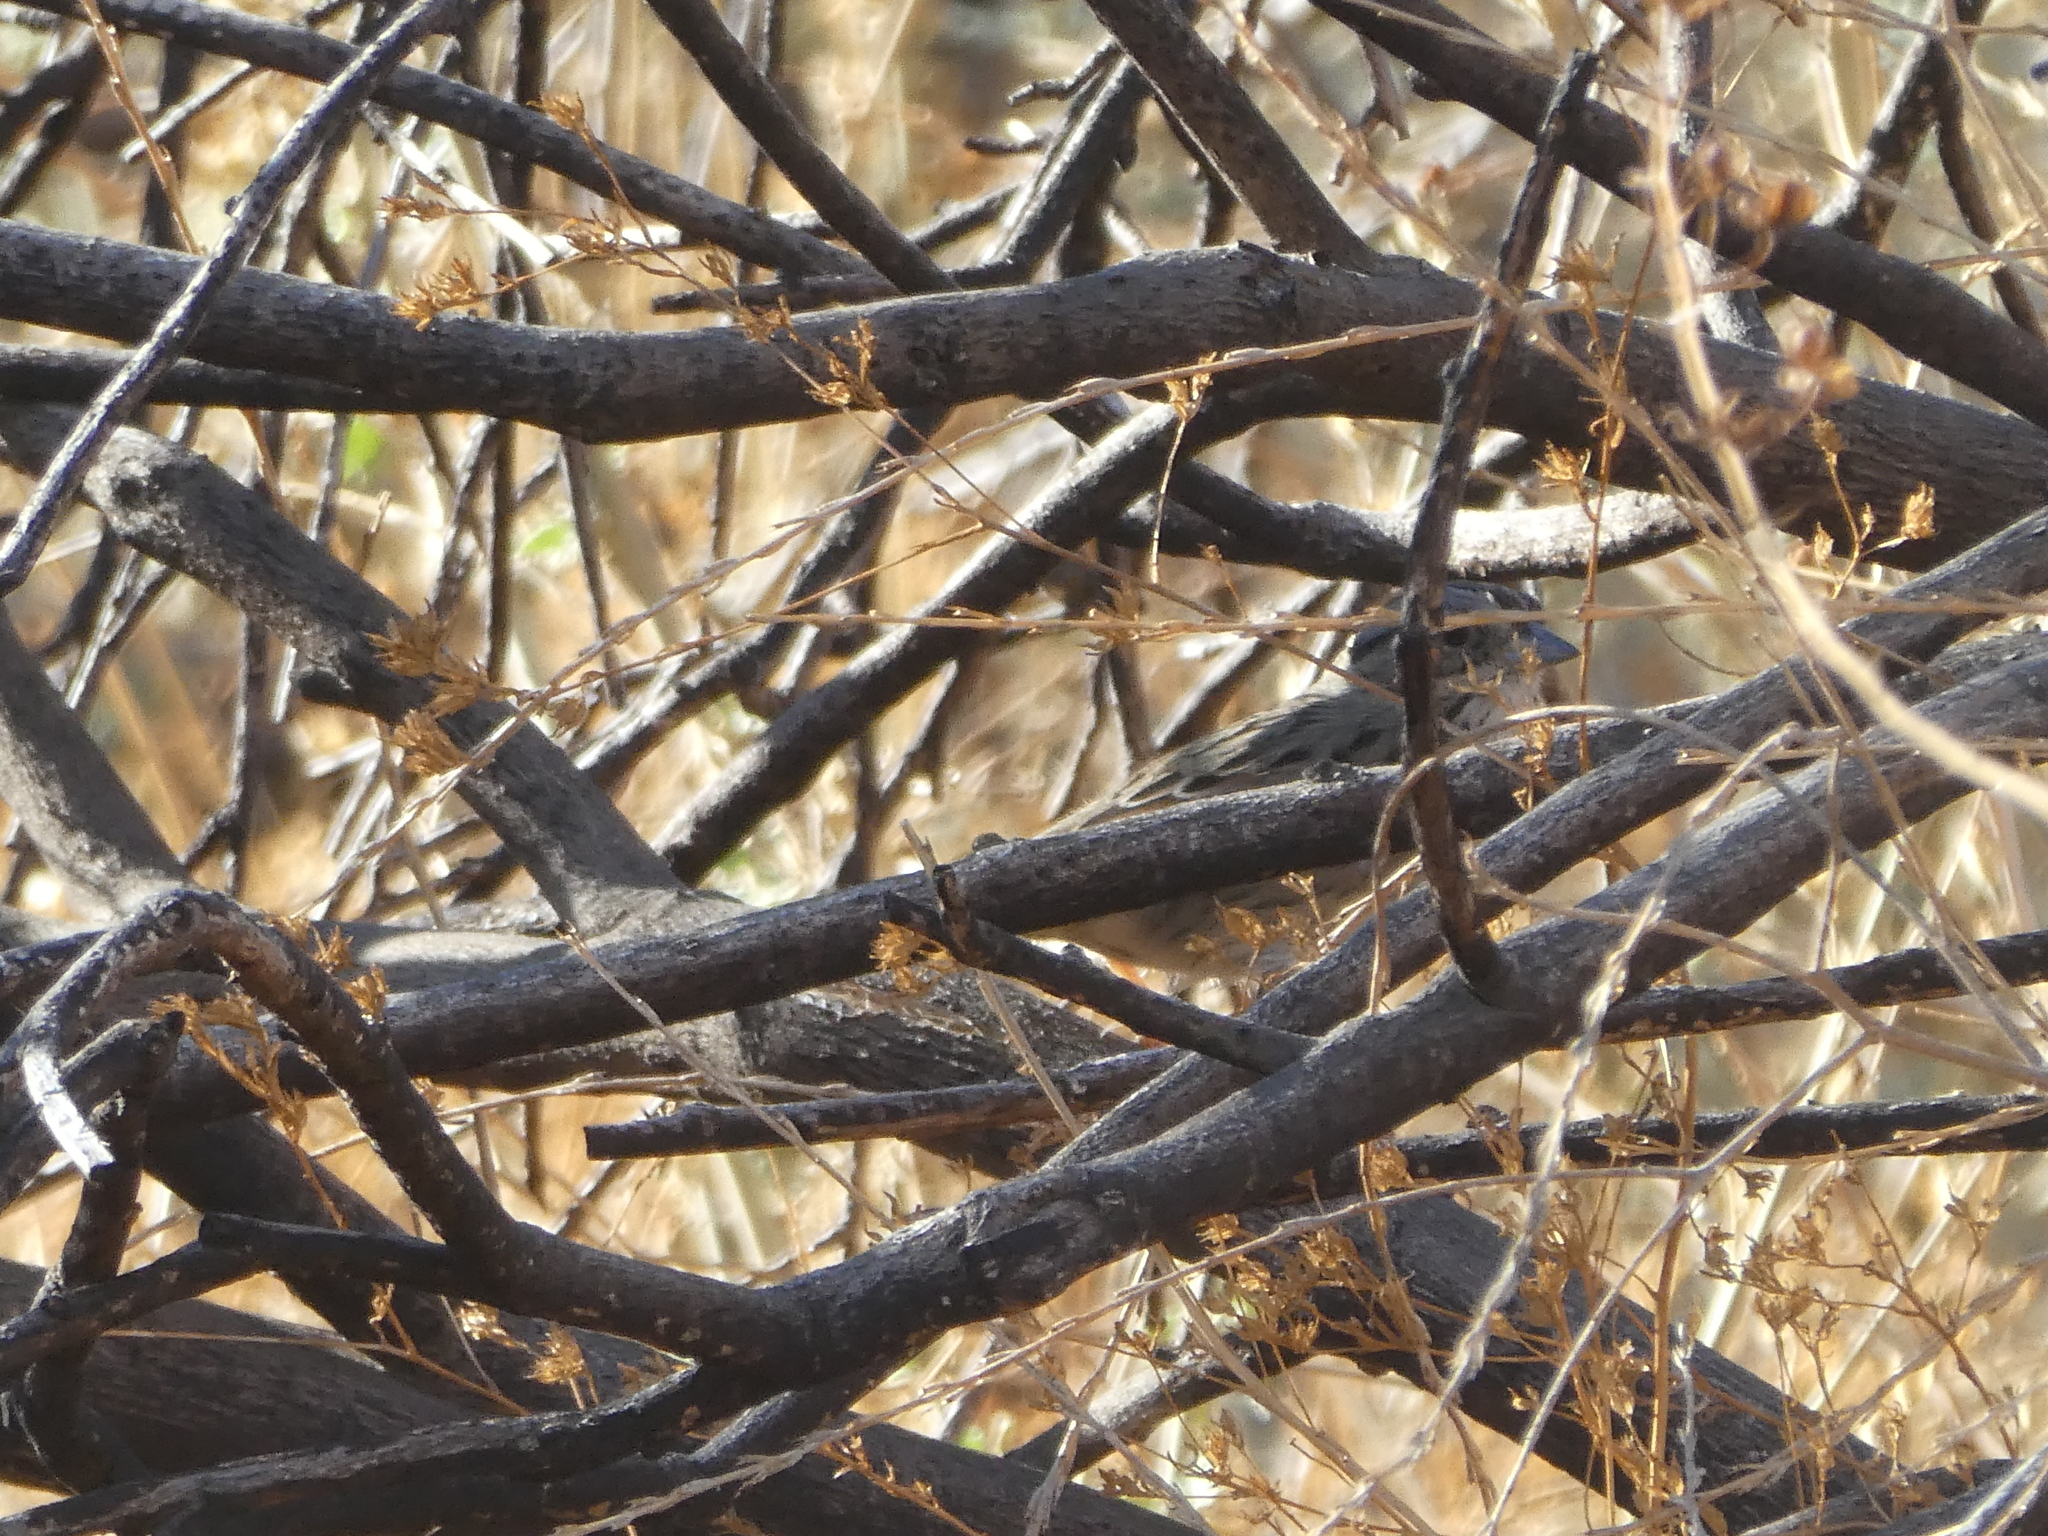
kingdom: Animalia
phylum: Chordata
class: Aves
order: Passeriformes
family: Passerellidae
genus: Melospiza
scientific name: Melospiza lincolnii
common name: Lincoln's sparrow
